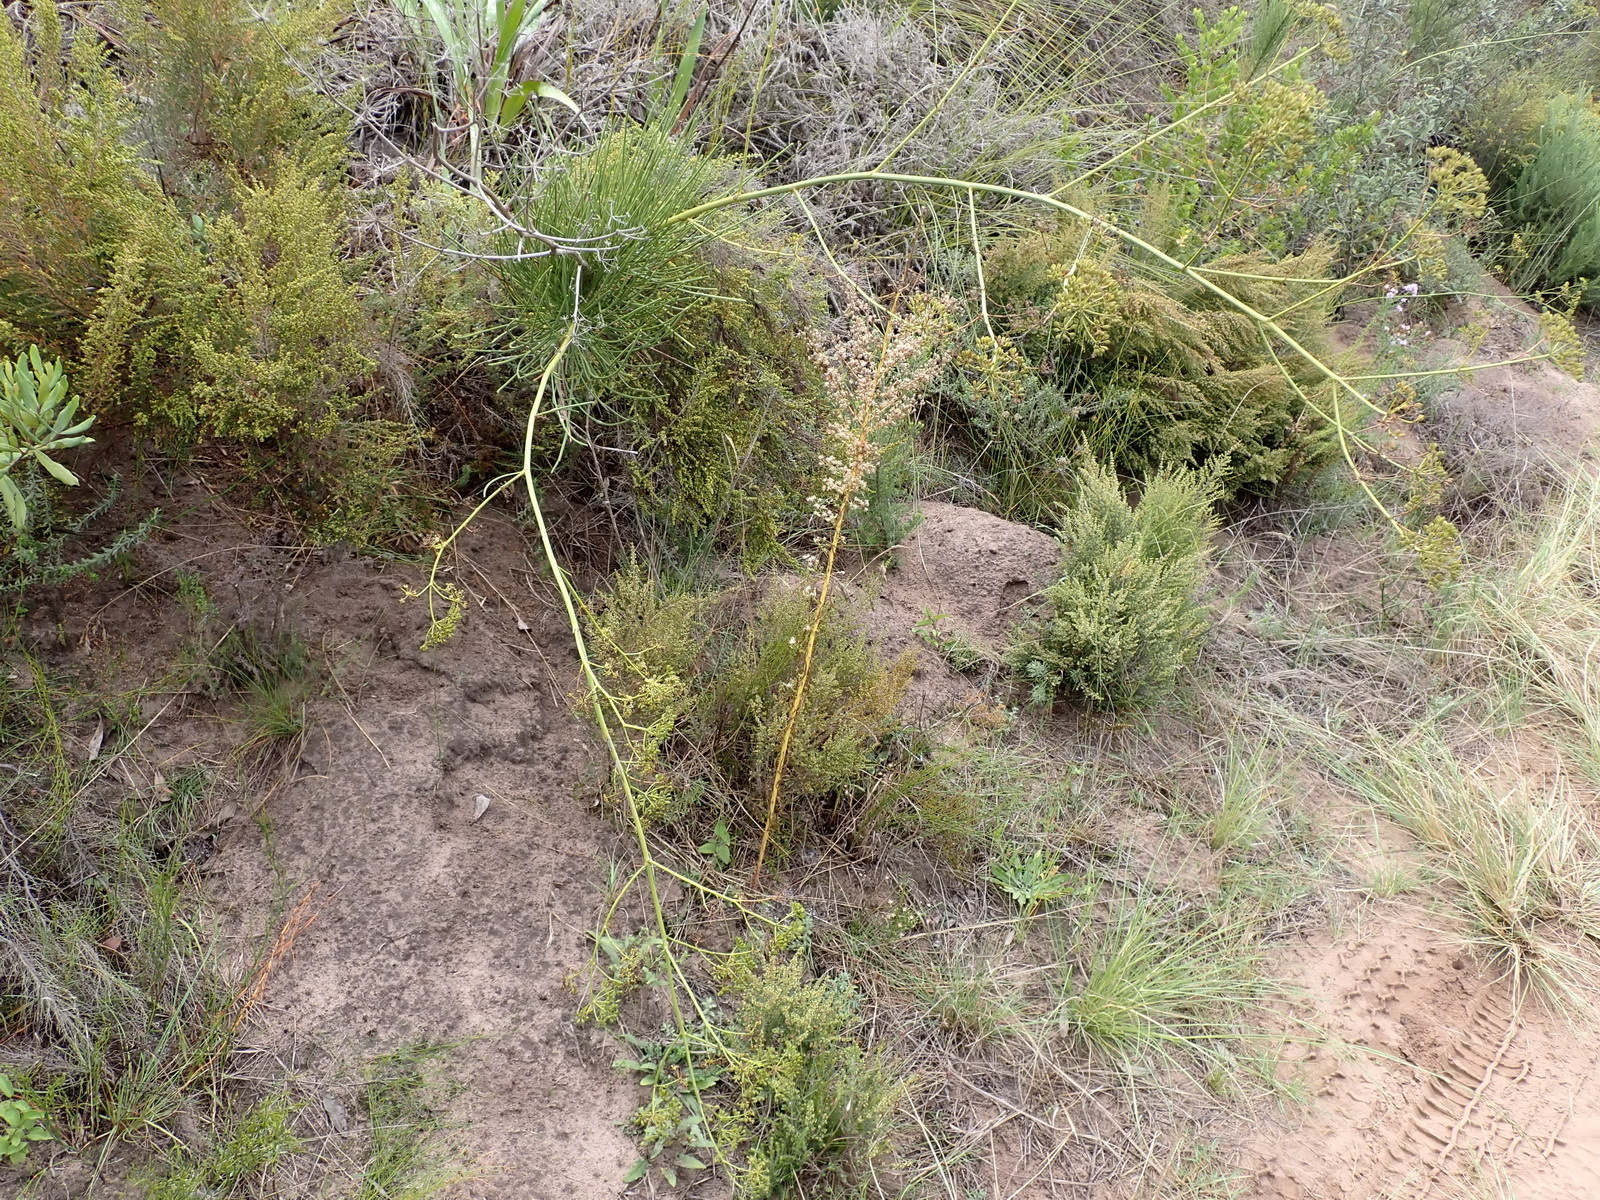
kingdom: Plantae
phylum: Tracheophyta
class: Magnoliopsida
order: Apiales
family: Apiaceae
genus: Anginon
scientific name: Anginon difforme
